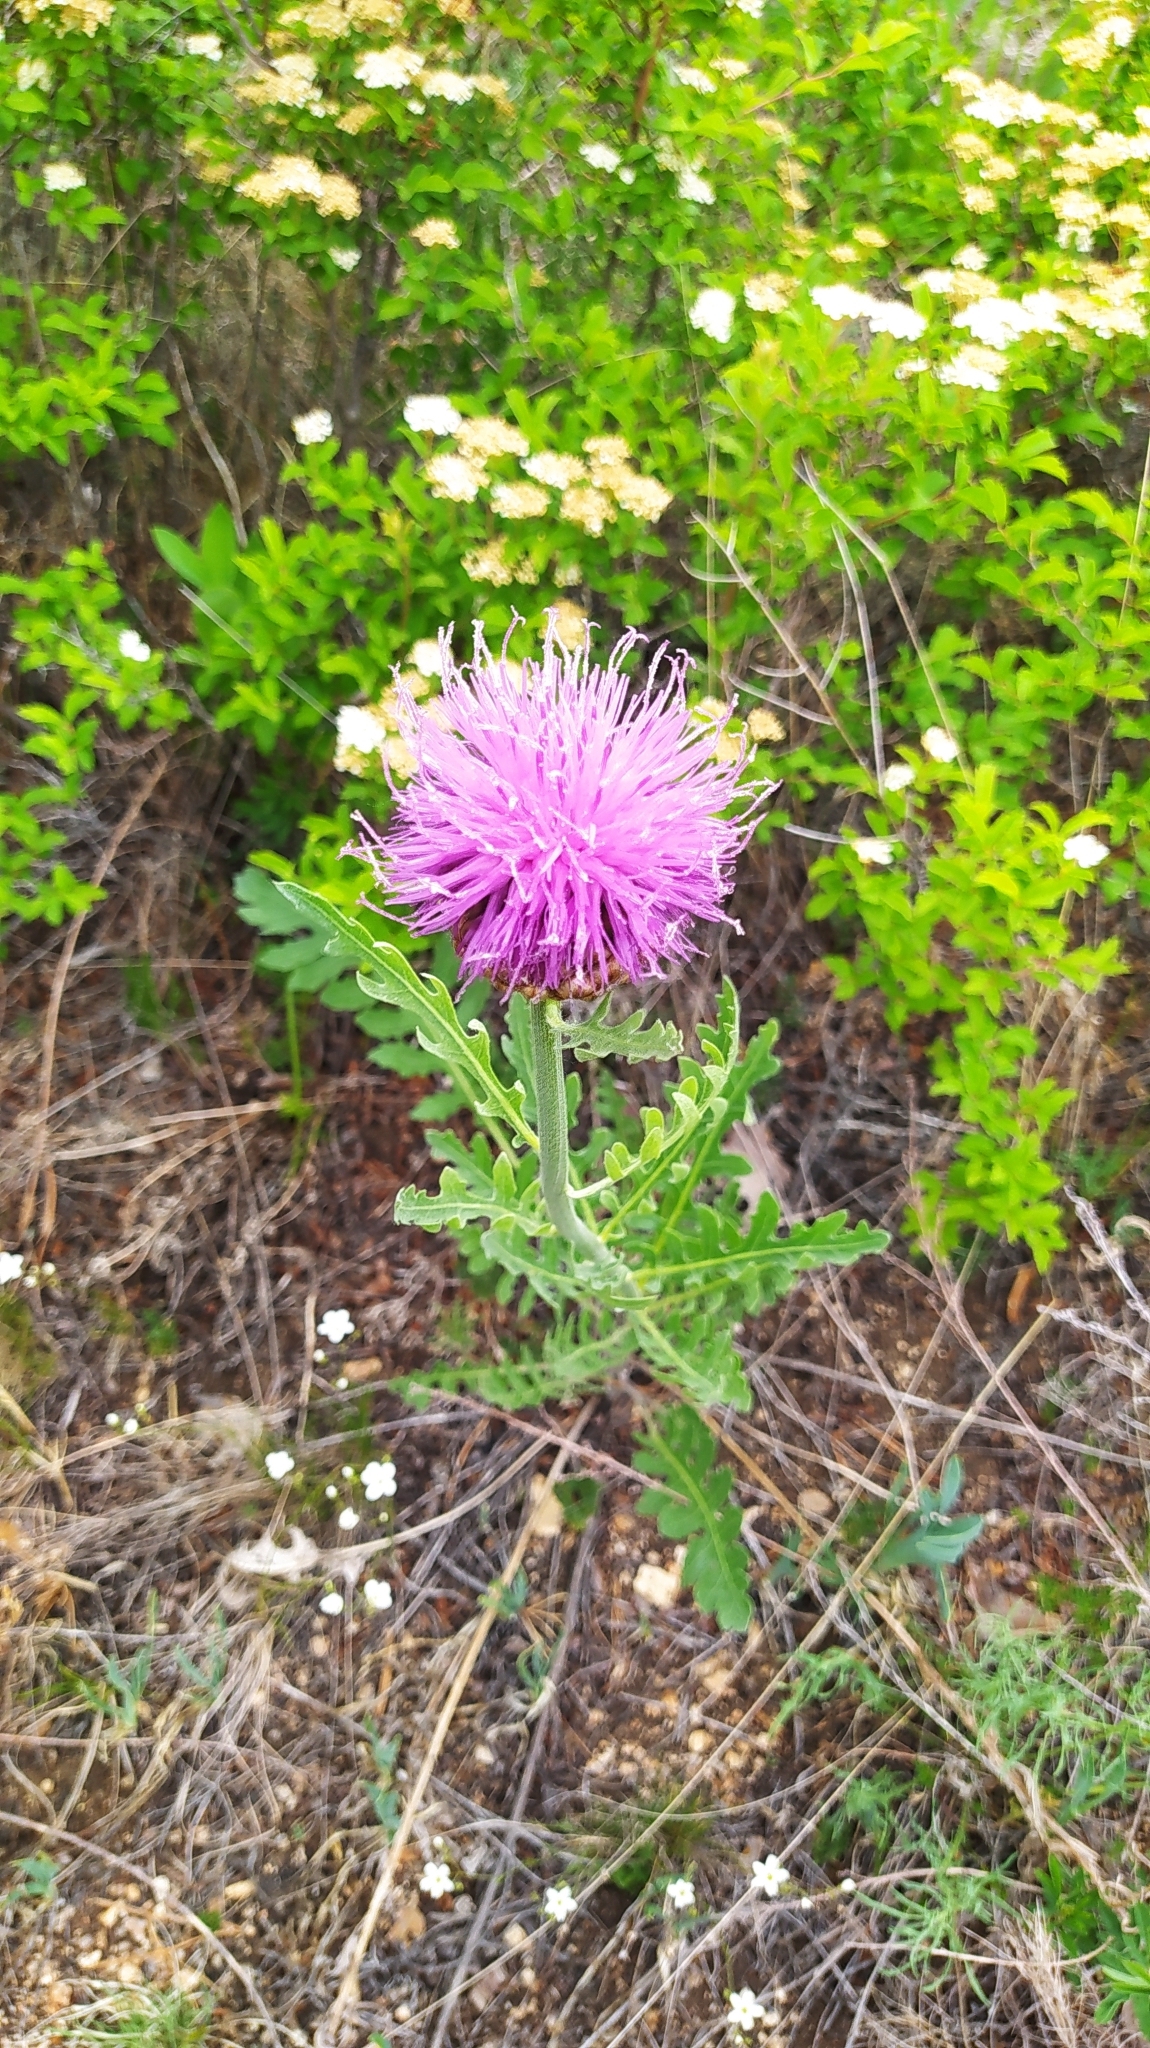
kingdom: Plantae
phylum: Tracheophyta
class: Magnoliopsida
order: Asterales
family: Asteraceae
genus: Leuzea
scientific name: Leuzea uniflora
